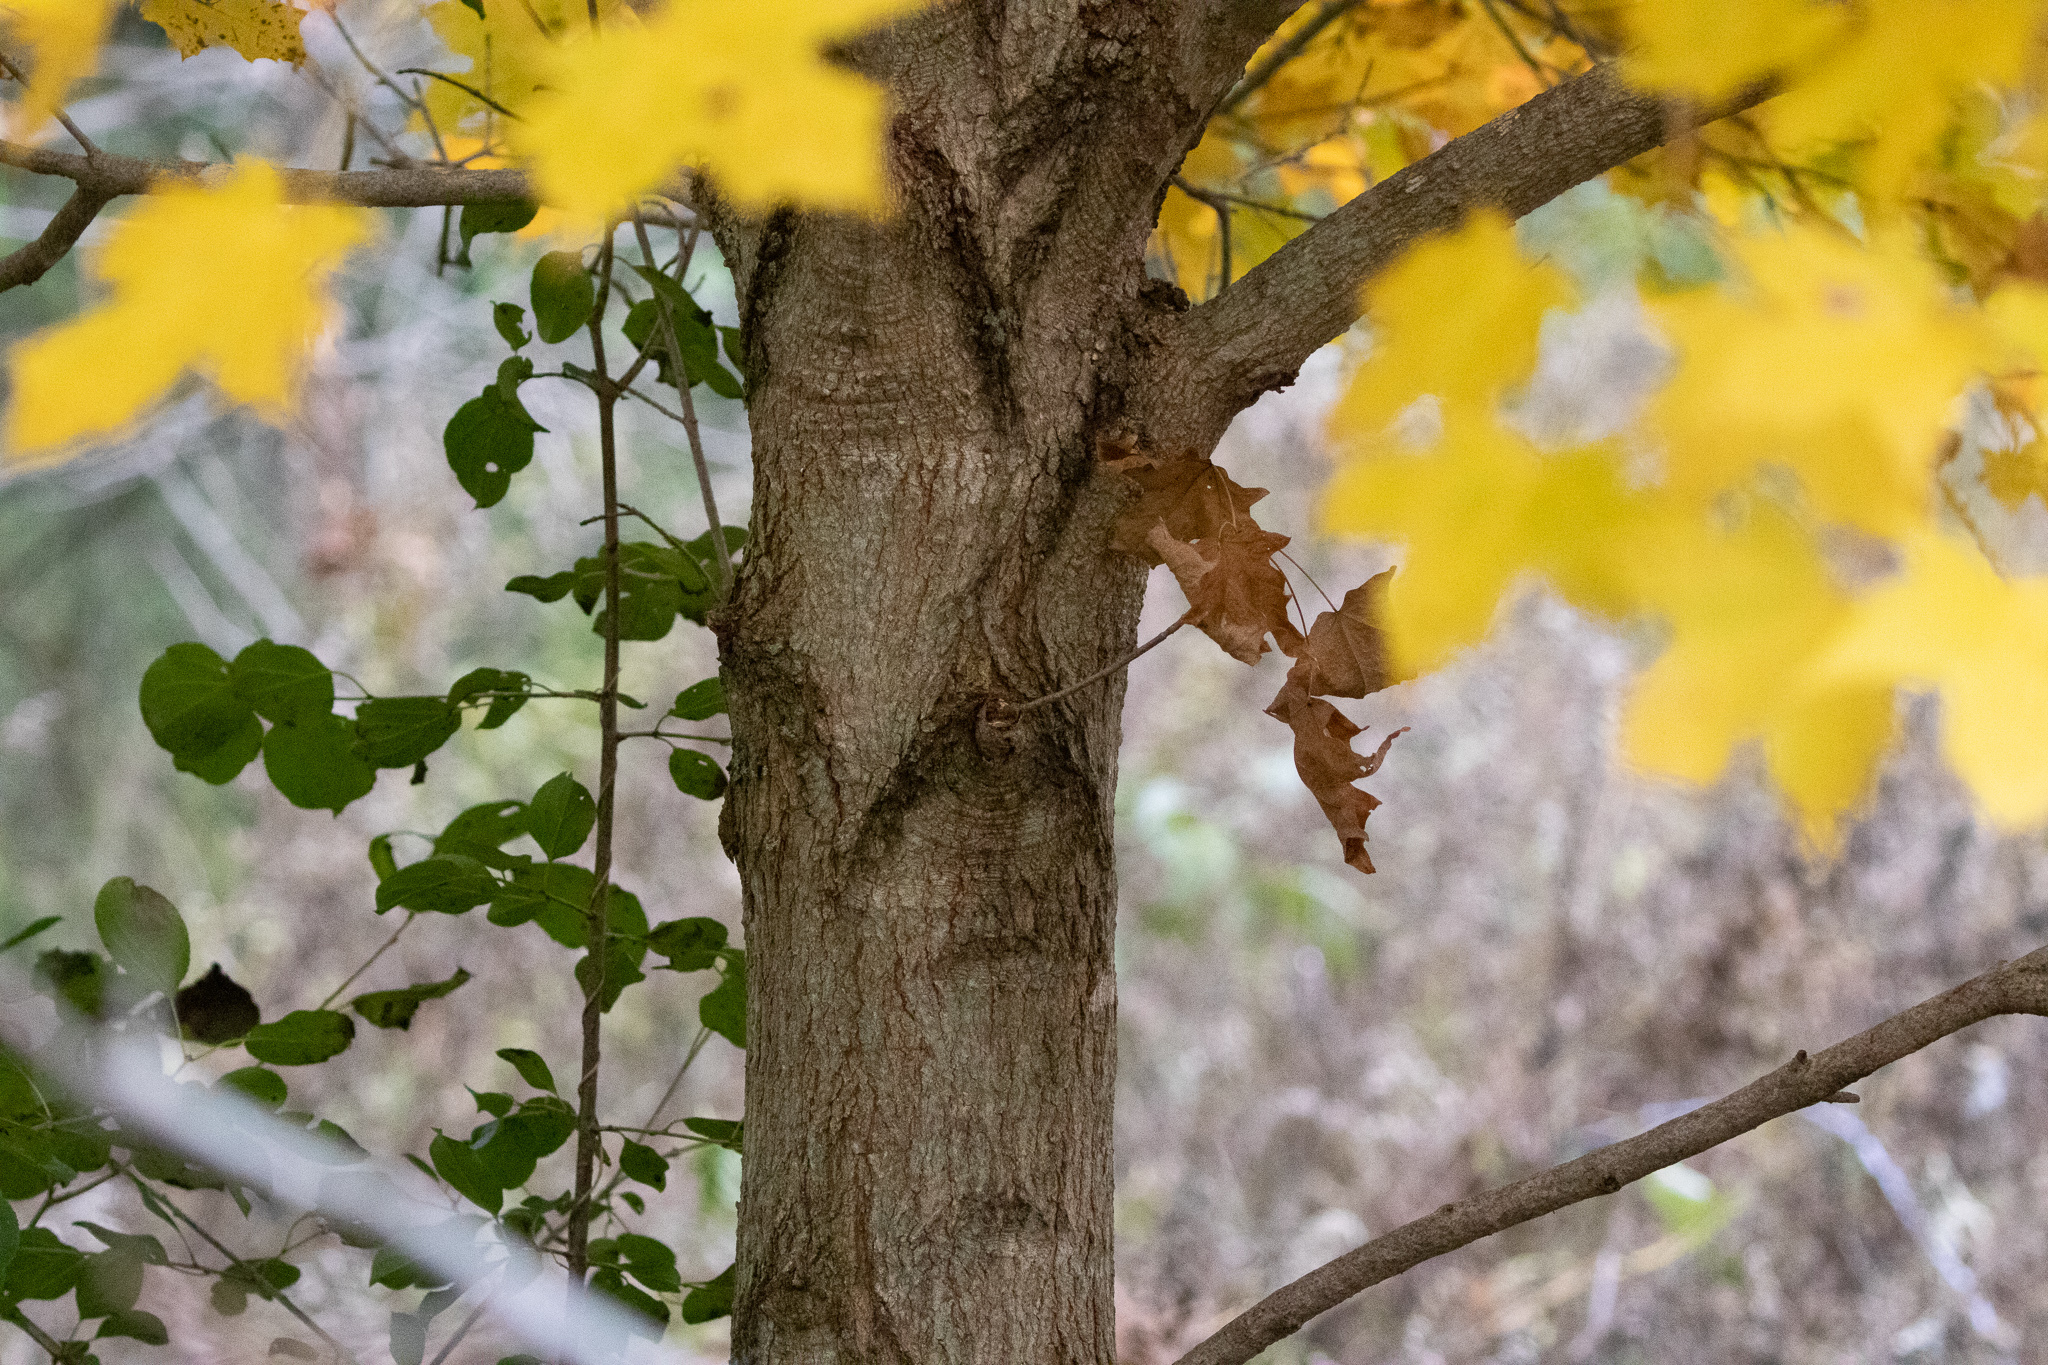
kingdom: Plantae
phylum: Tracheophyta
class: Magnoliopsida
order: Sapindales
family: Sapindaceae
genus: Acer
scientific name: Acer saccharum
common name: Sugar maple
